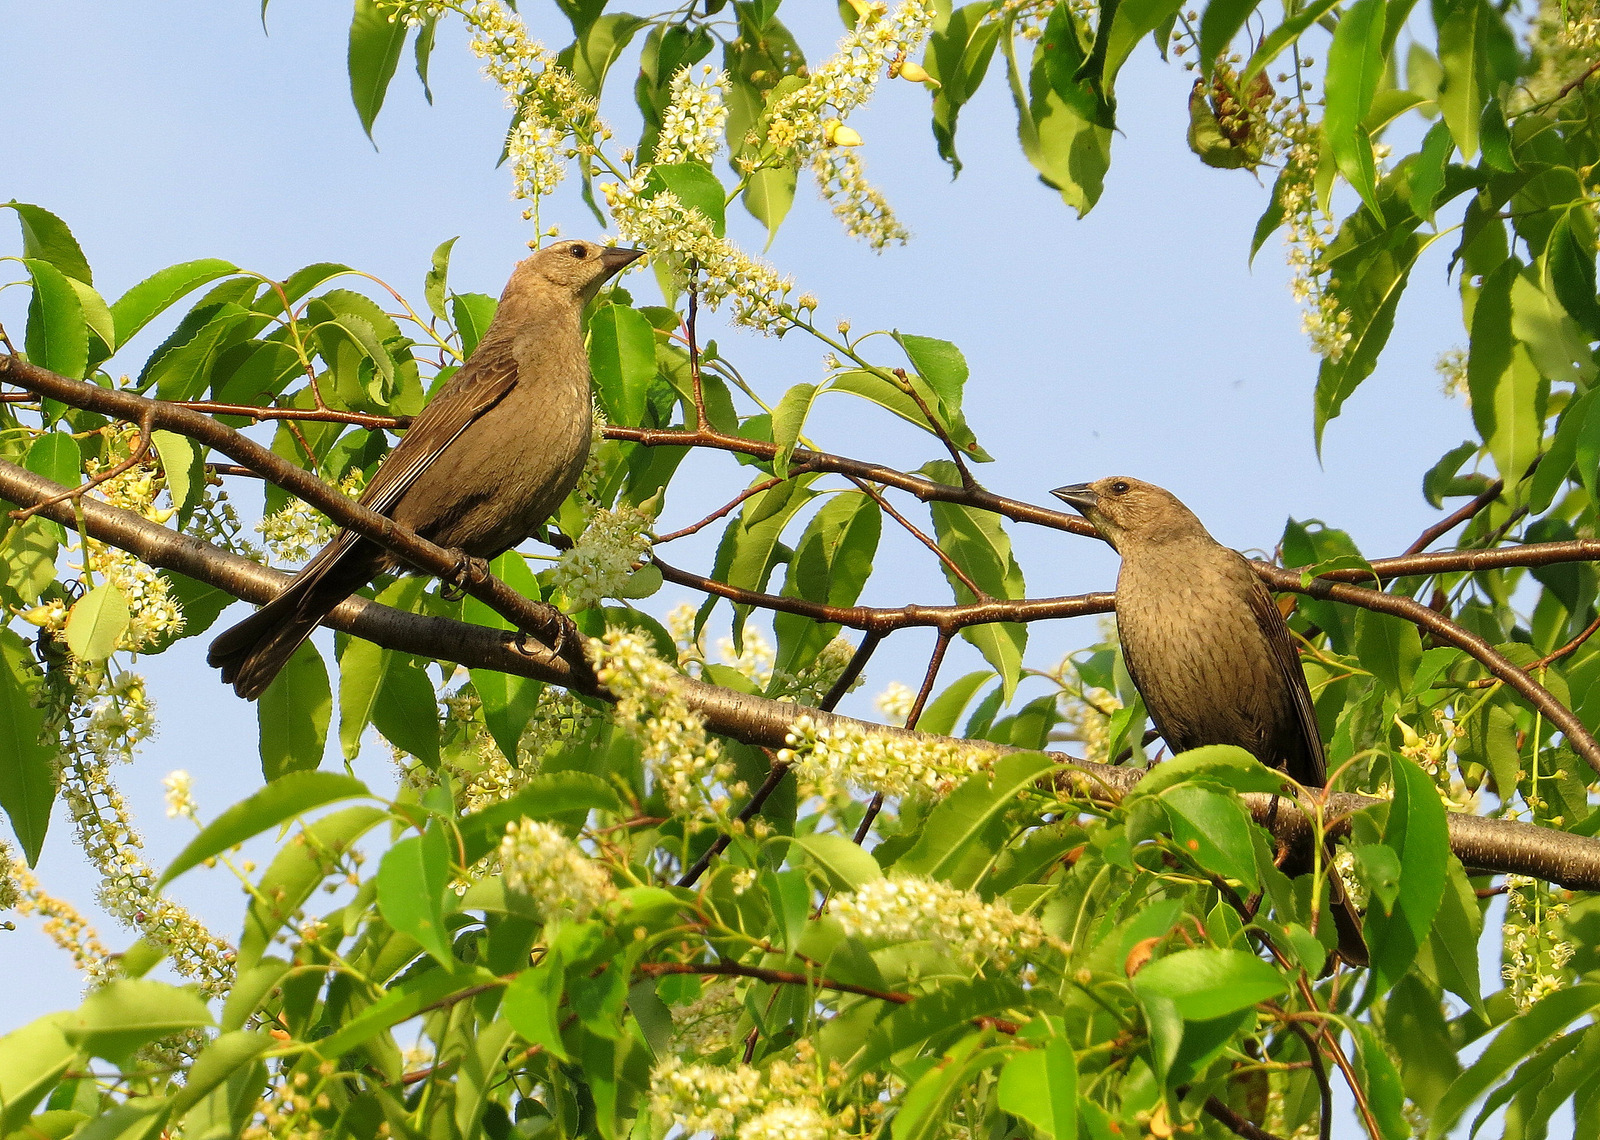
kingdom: Animalia
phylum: Chordata
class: Aves
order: Passeriformes
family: Icteridae
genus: Molothrus
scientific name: Molothrus ater
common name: Brown-headed cowbird
